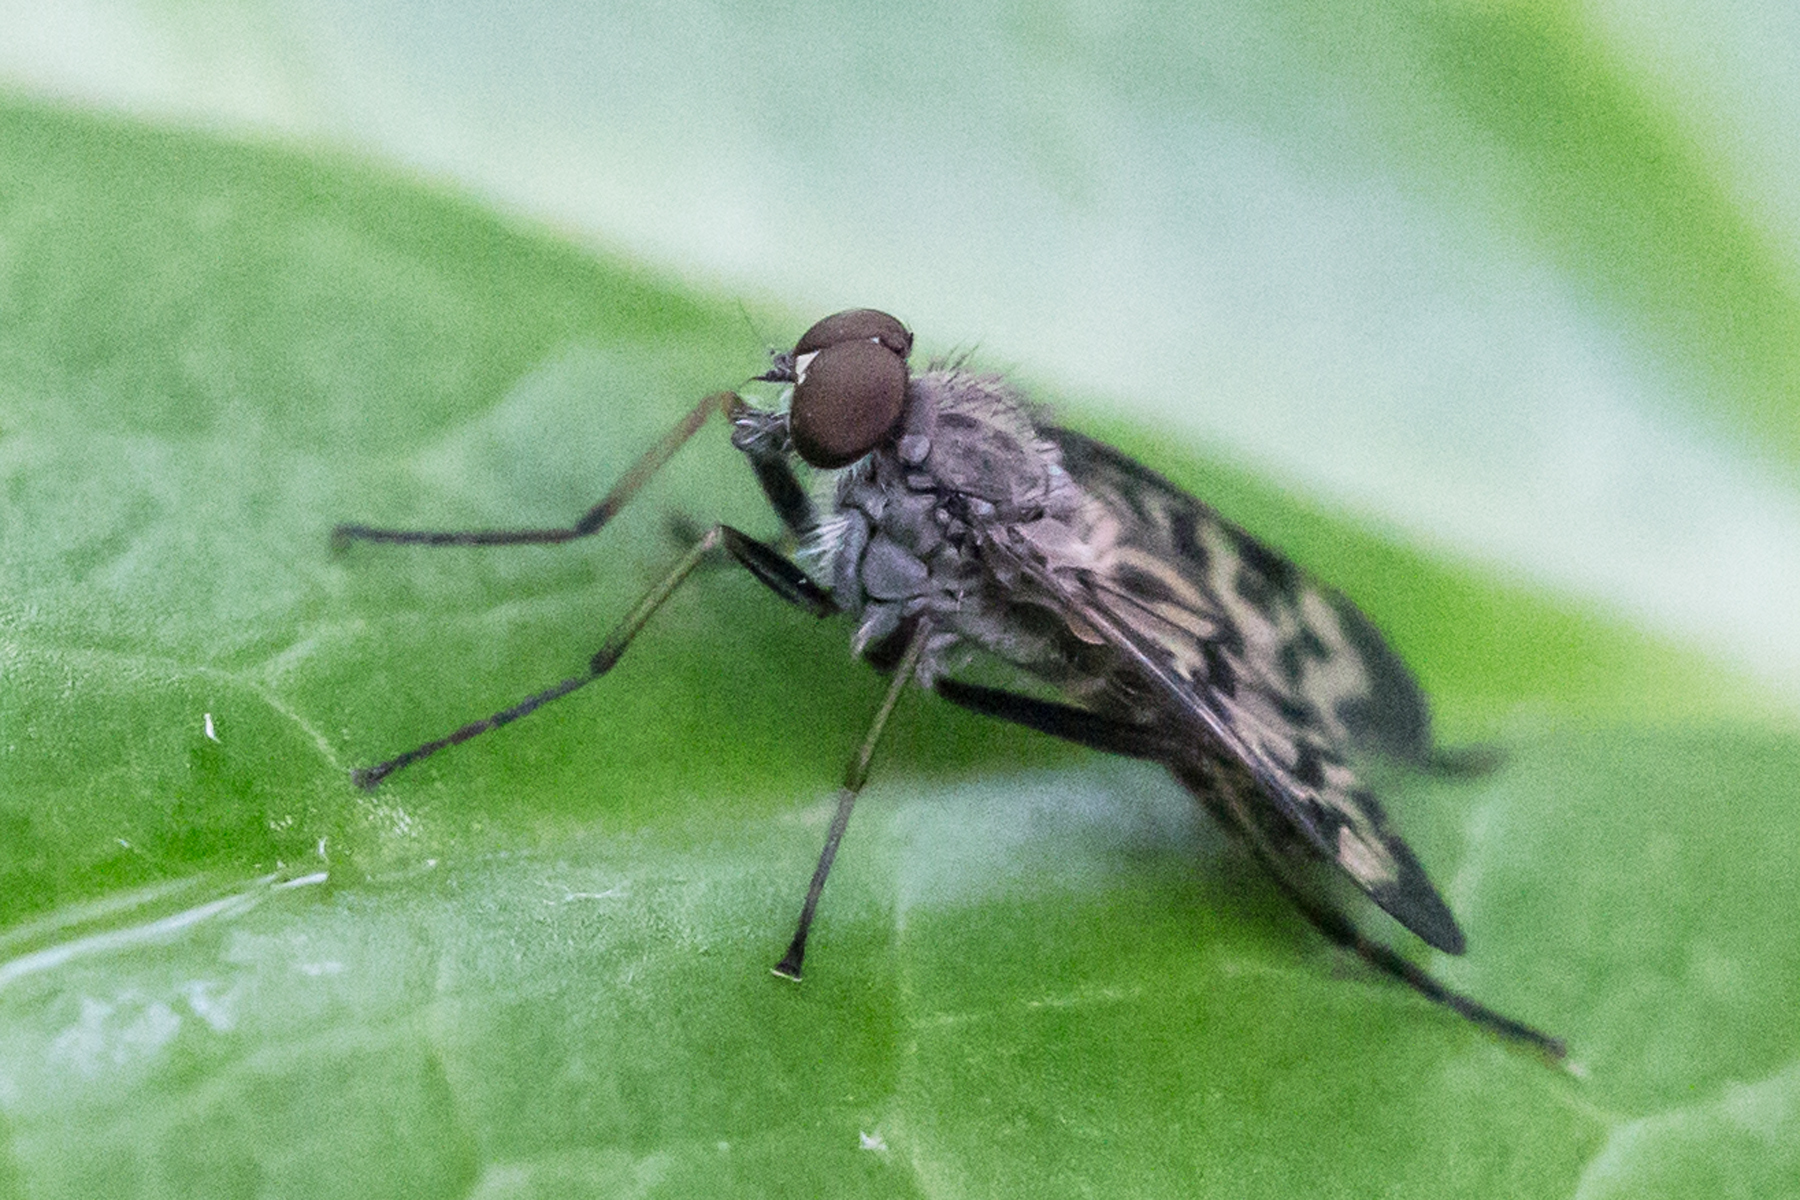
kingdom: Animalia
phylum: Arthropoda
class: Insecta
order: Diptera
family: Rhagionidae
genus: Rhagio
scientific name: Rhagio punctipennis
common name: Lesser variegated snipe fly
